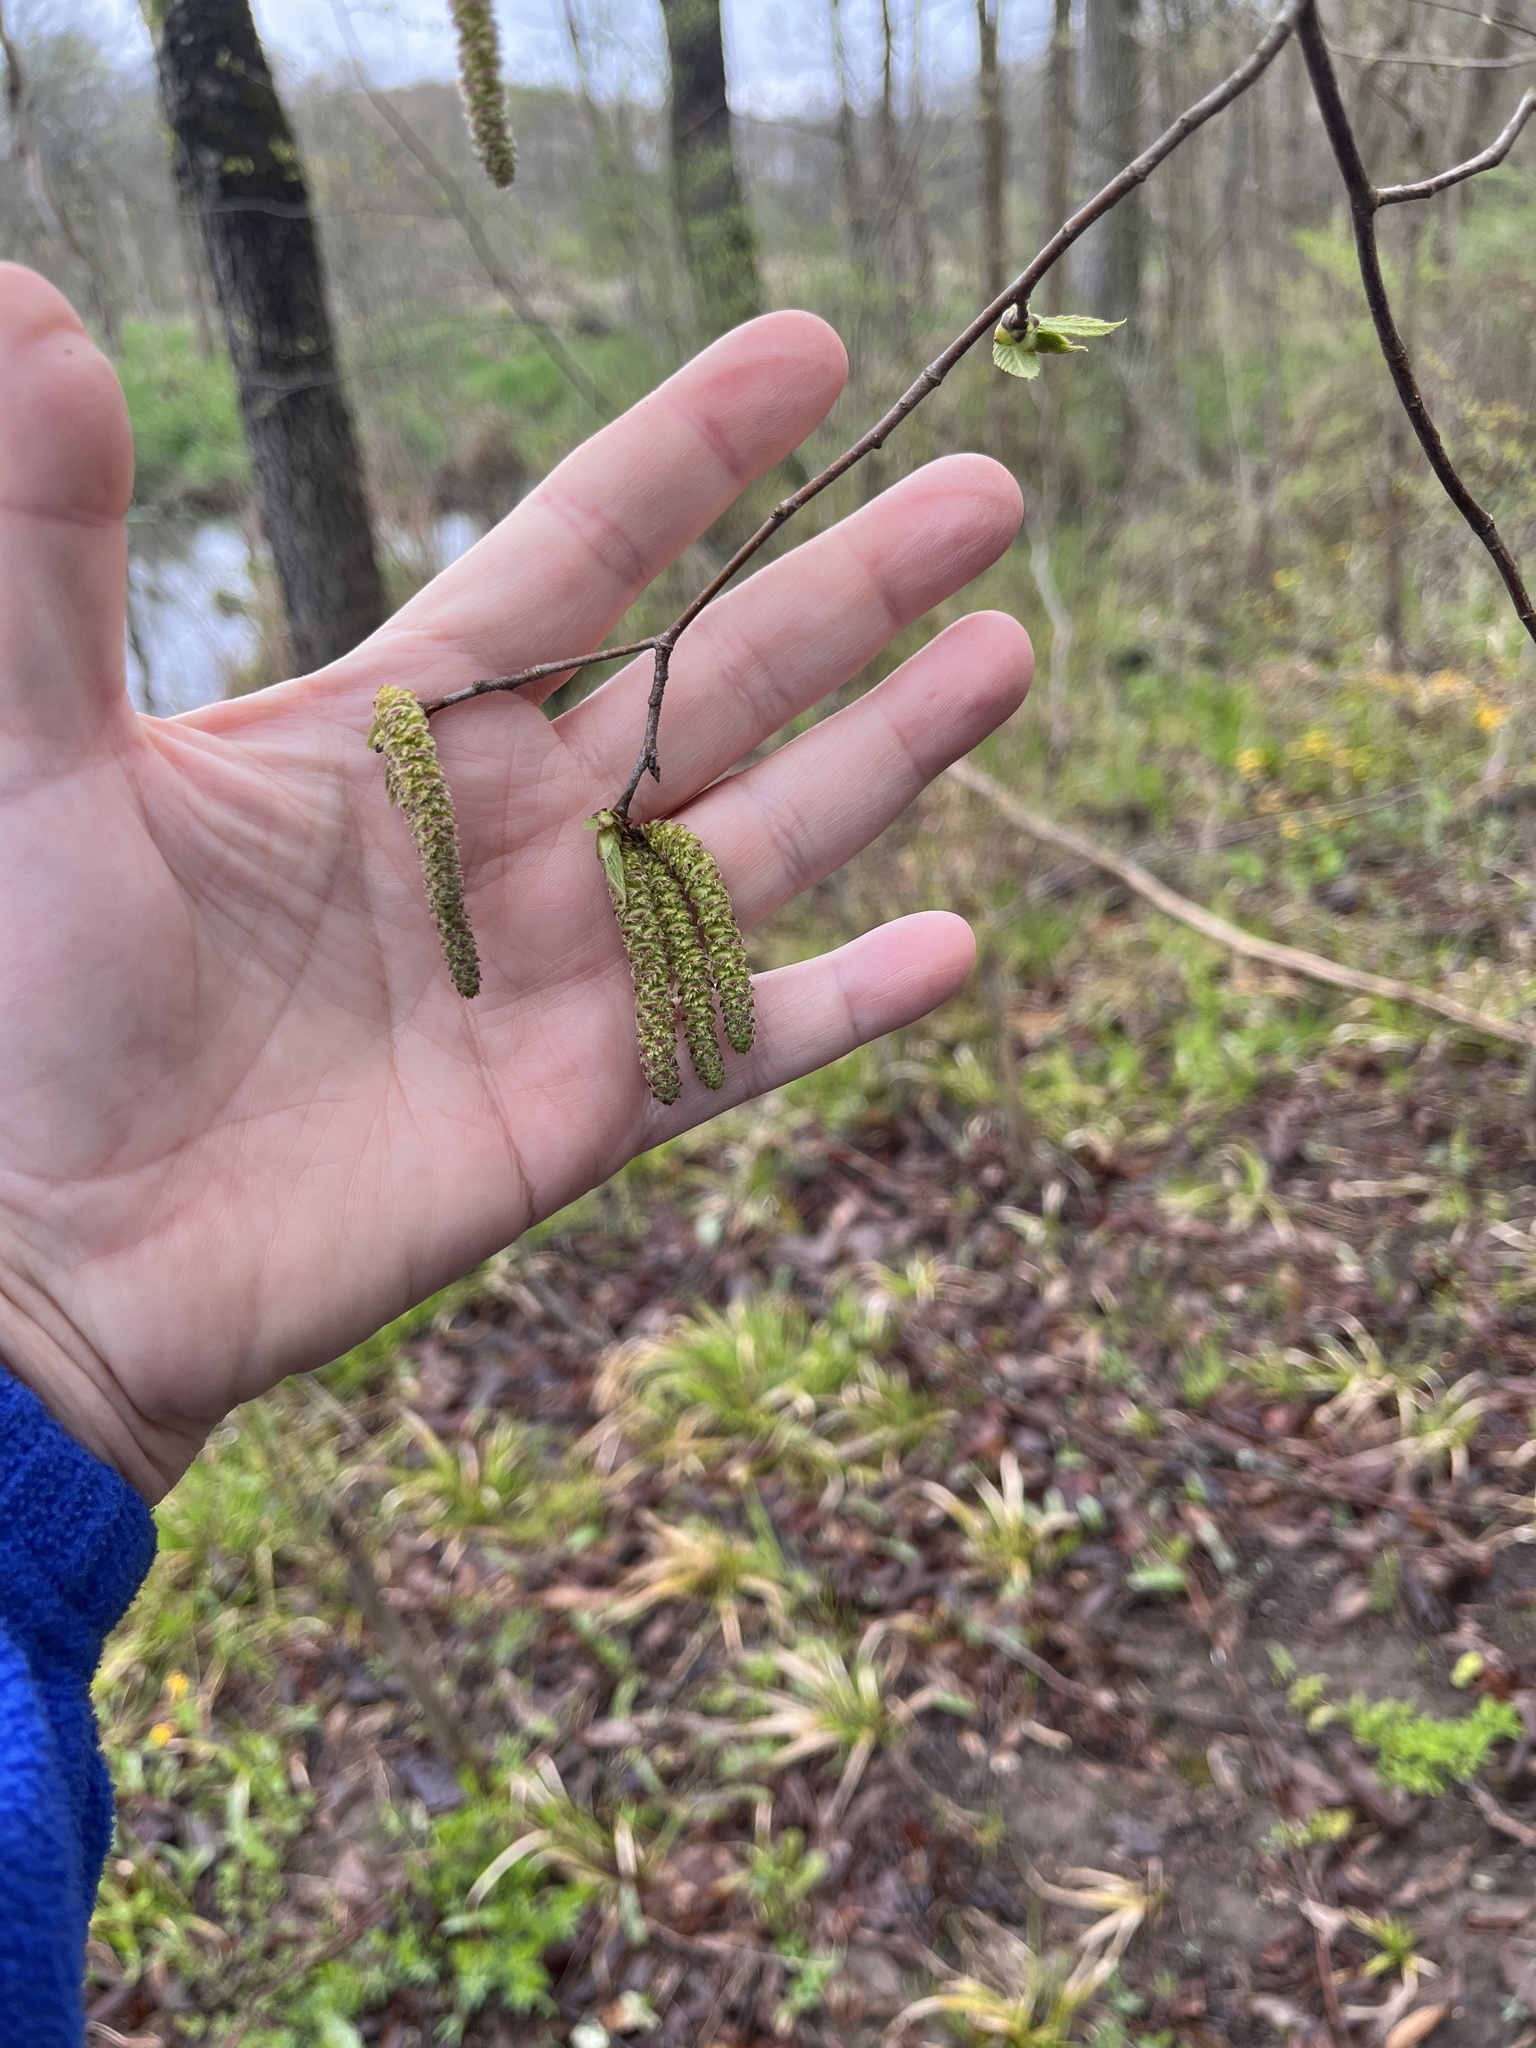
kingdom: Plantae
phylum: Tracheophyta
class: Magnoliopsida
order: Fagales
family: Betulaceae
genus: Ostrya
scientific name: Ostrya virginiana
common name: Ironwood
